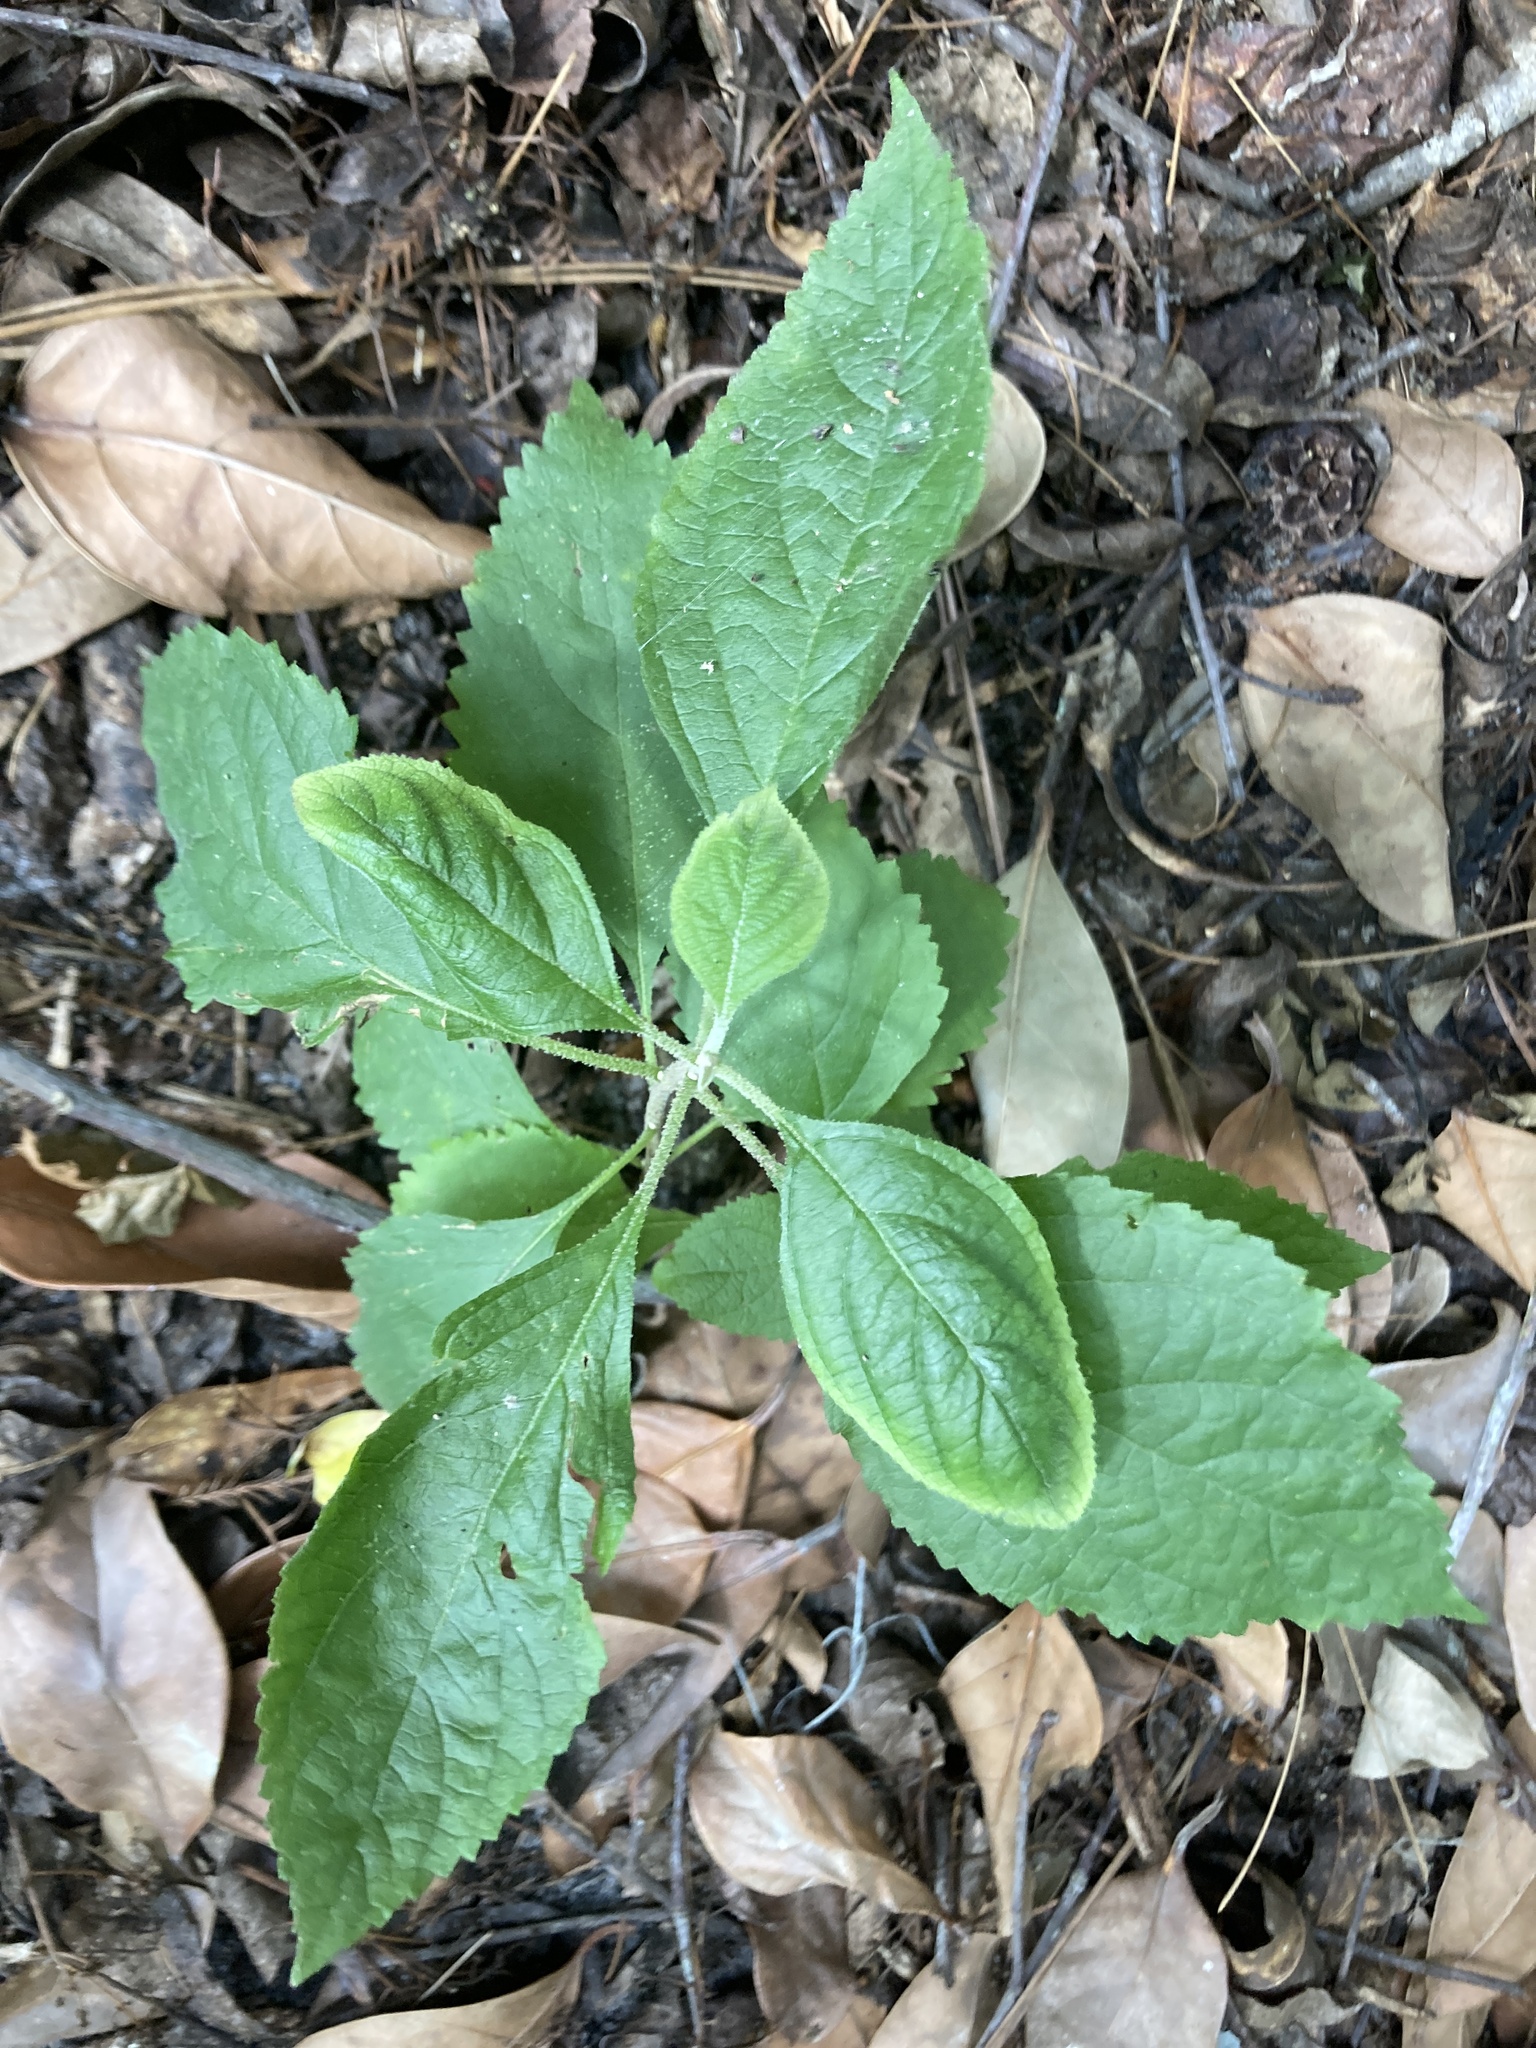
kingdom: Plantae
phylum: Tracheophyta
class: Magnoliopsida
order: Lamiales
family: Lamiaceae
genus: Callicarpa
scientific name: Callicarpa americana
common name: American beautyberry
